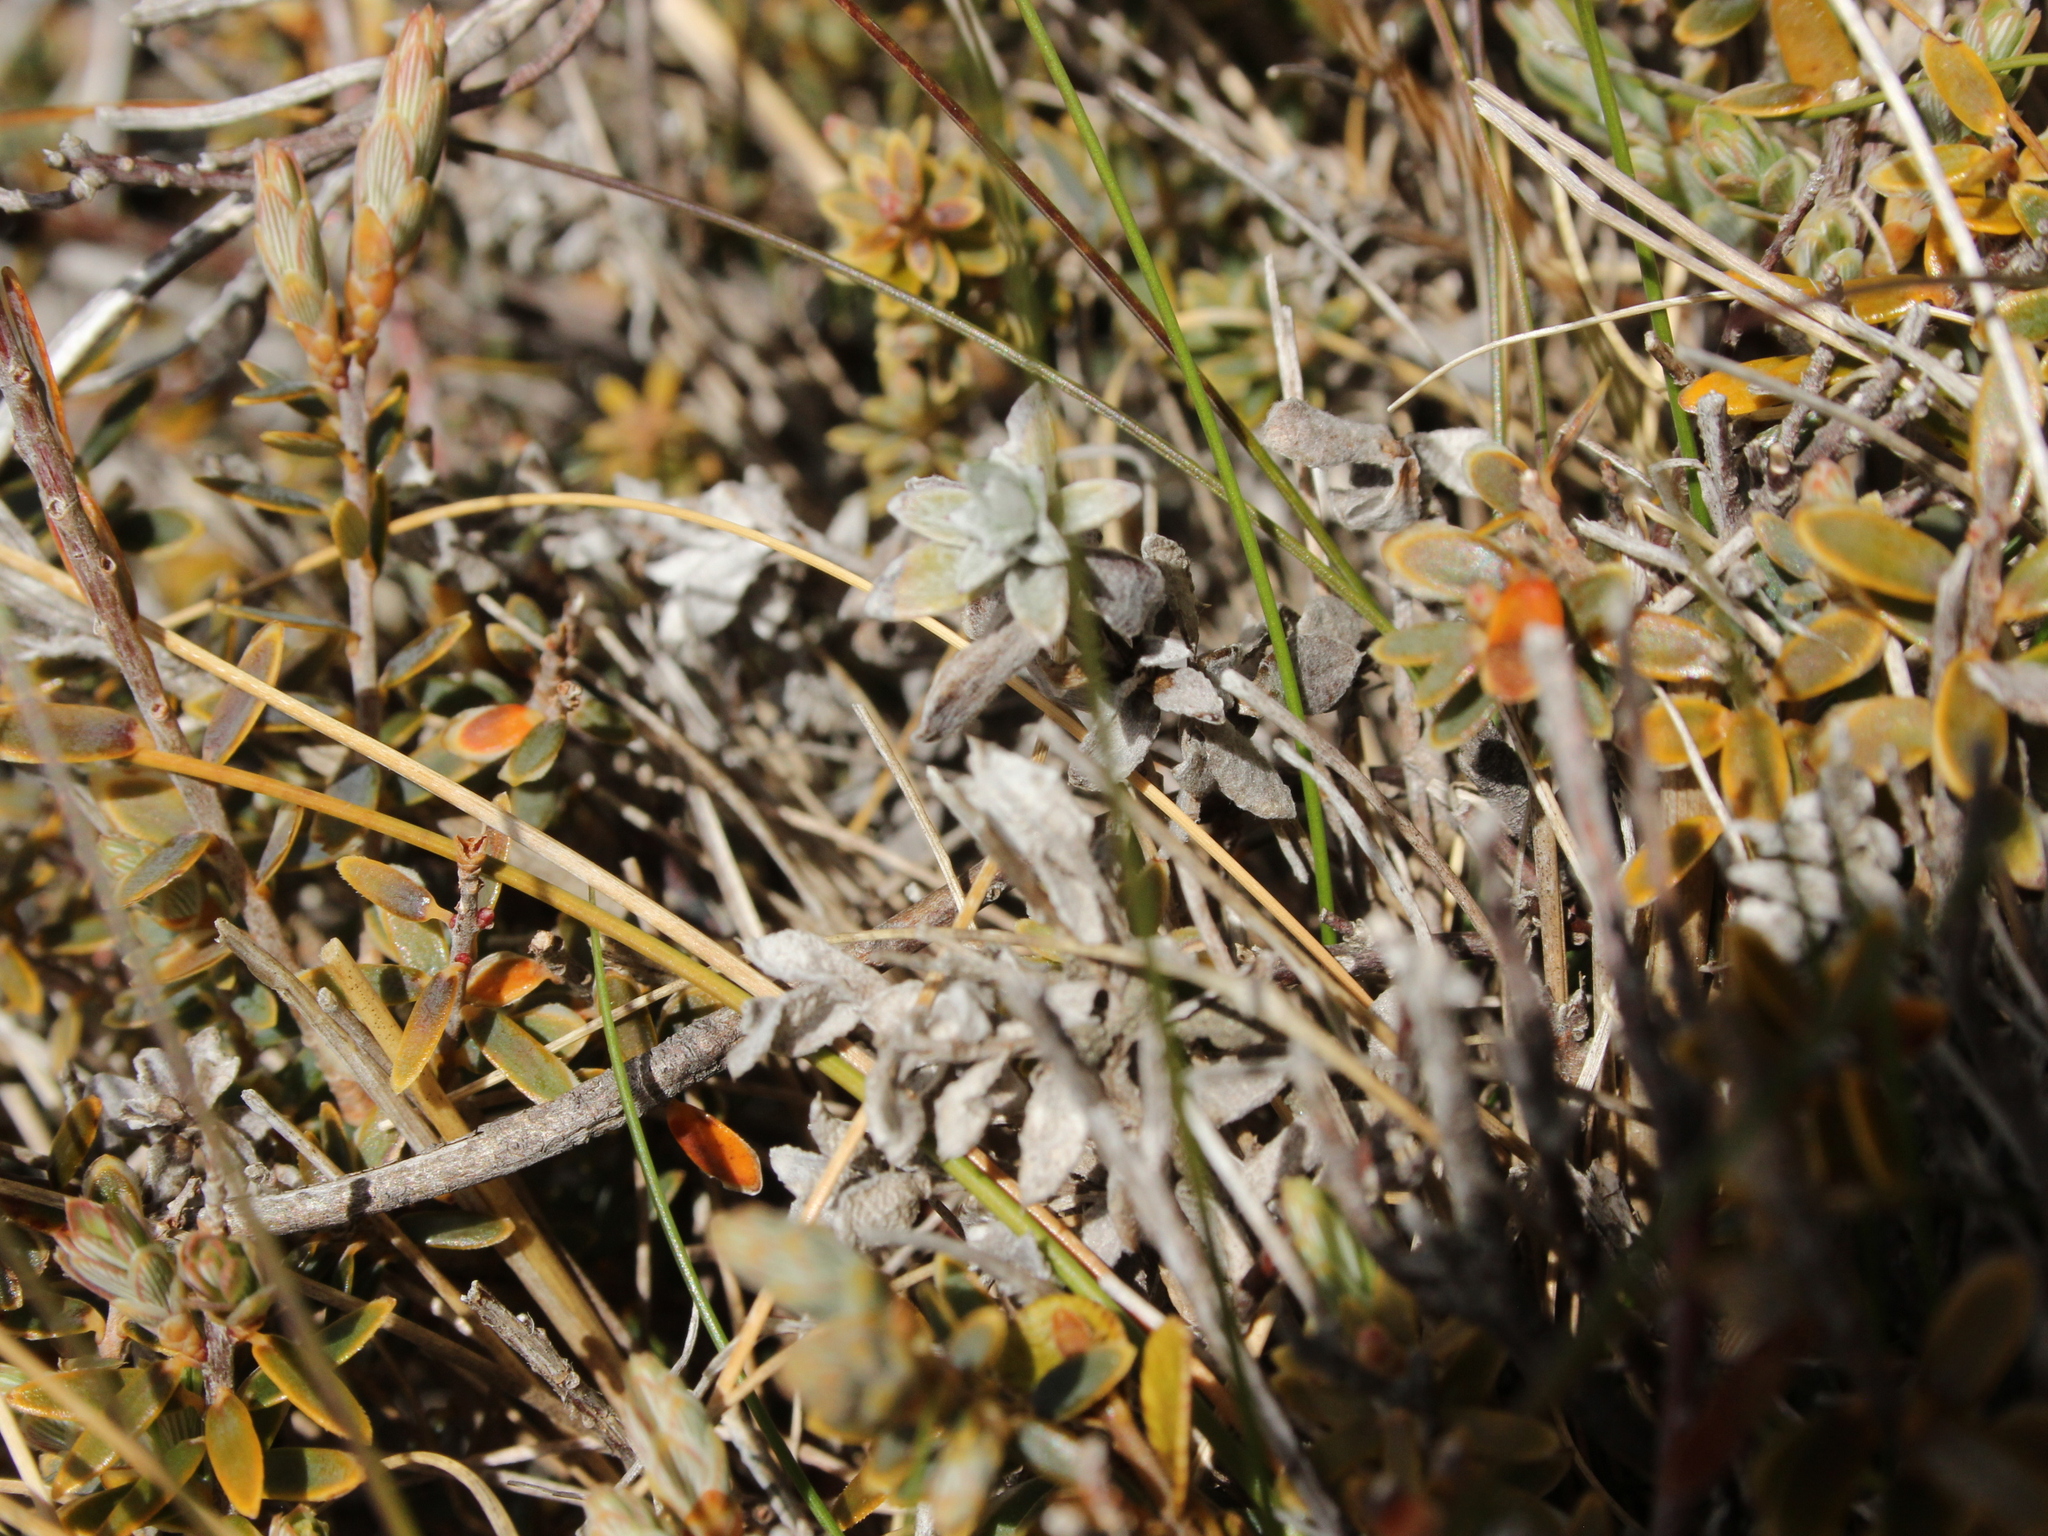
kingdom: Plantae
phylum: Tracheophyta
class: Magnoliopsida
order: Asterales
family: Asteraceae
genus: Anaphalioides
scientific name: Anaphalioides bellidioides
